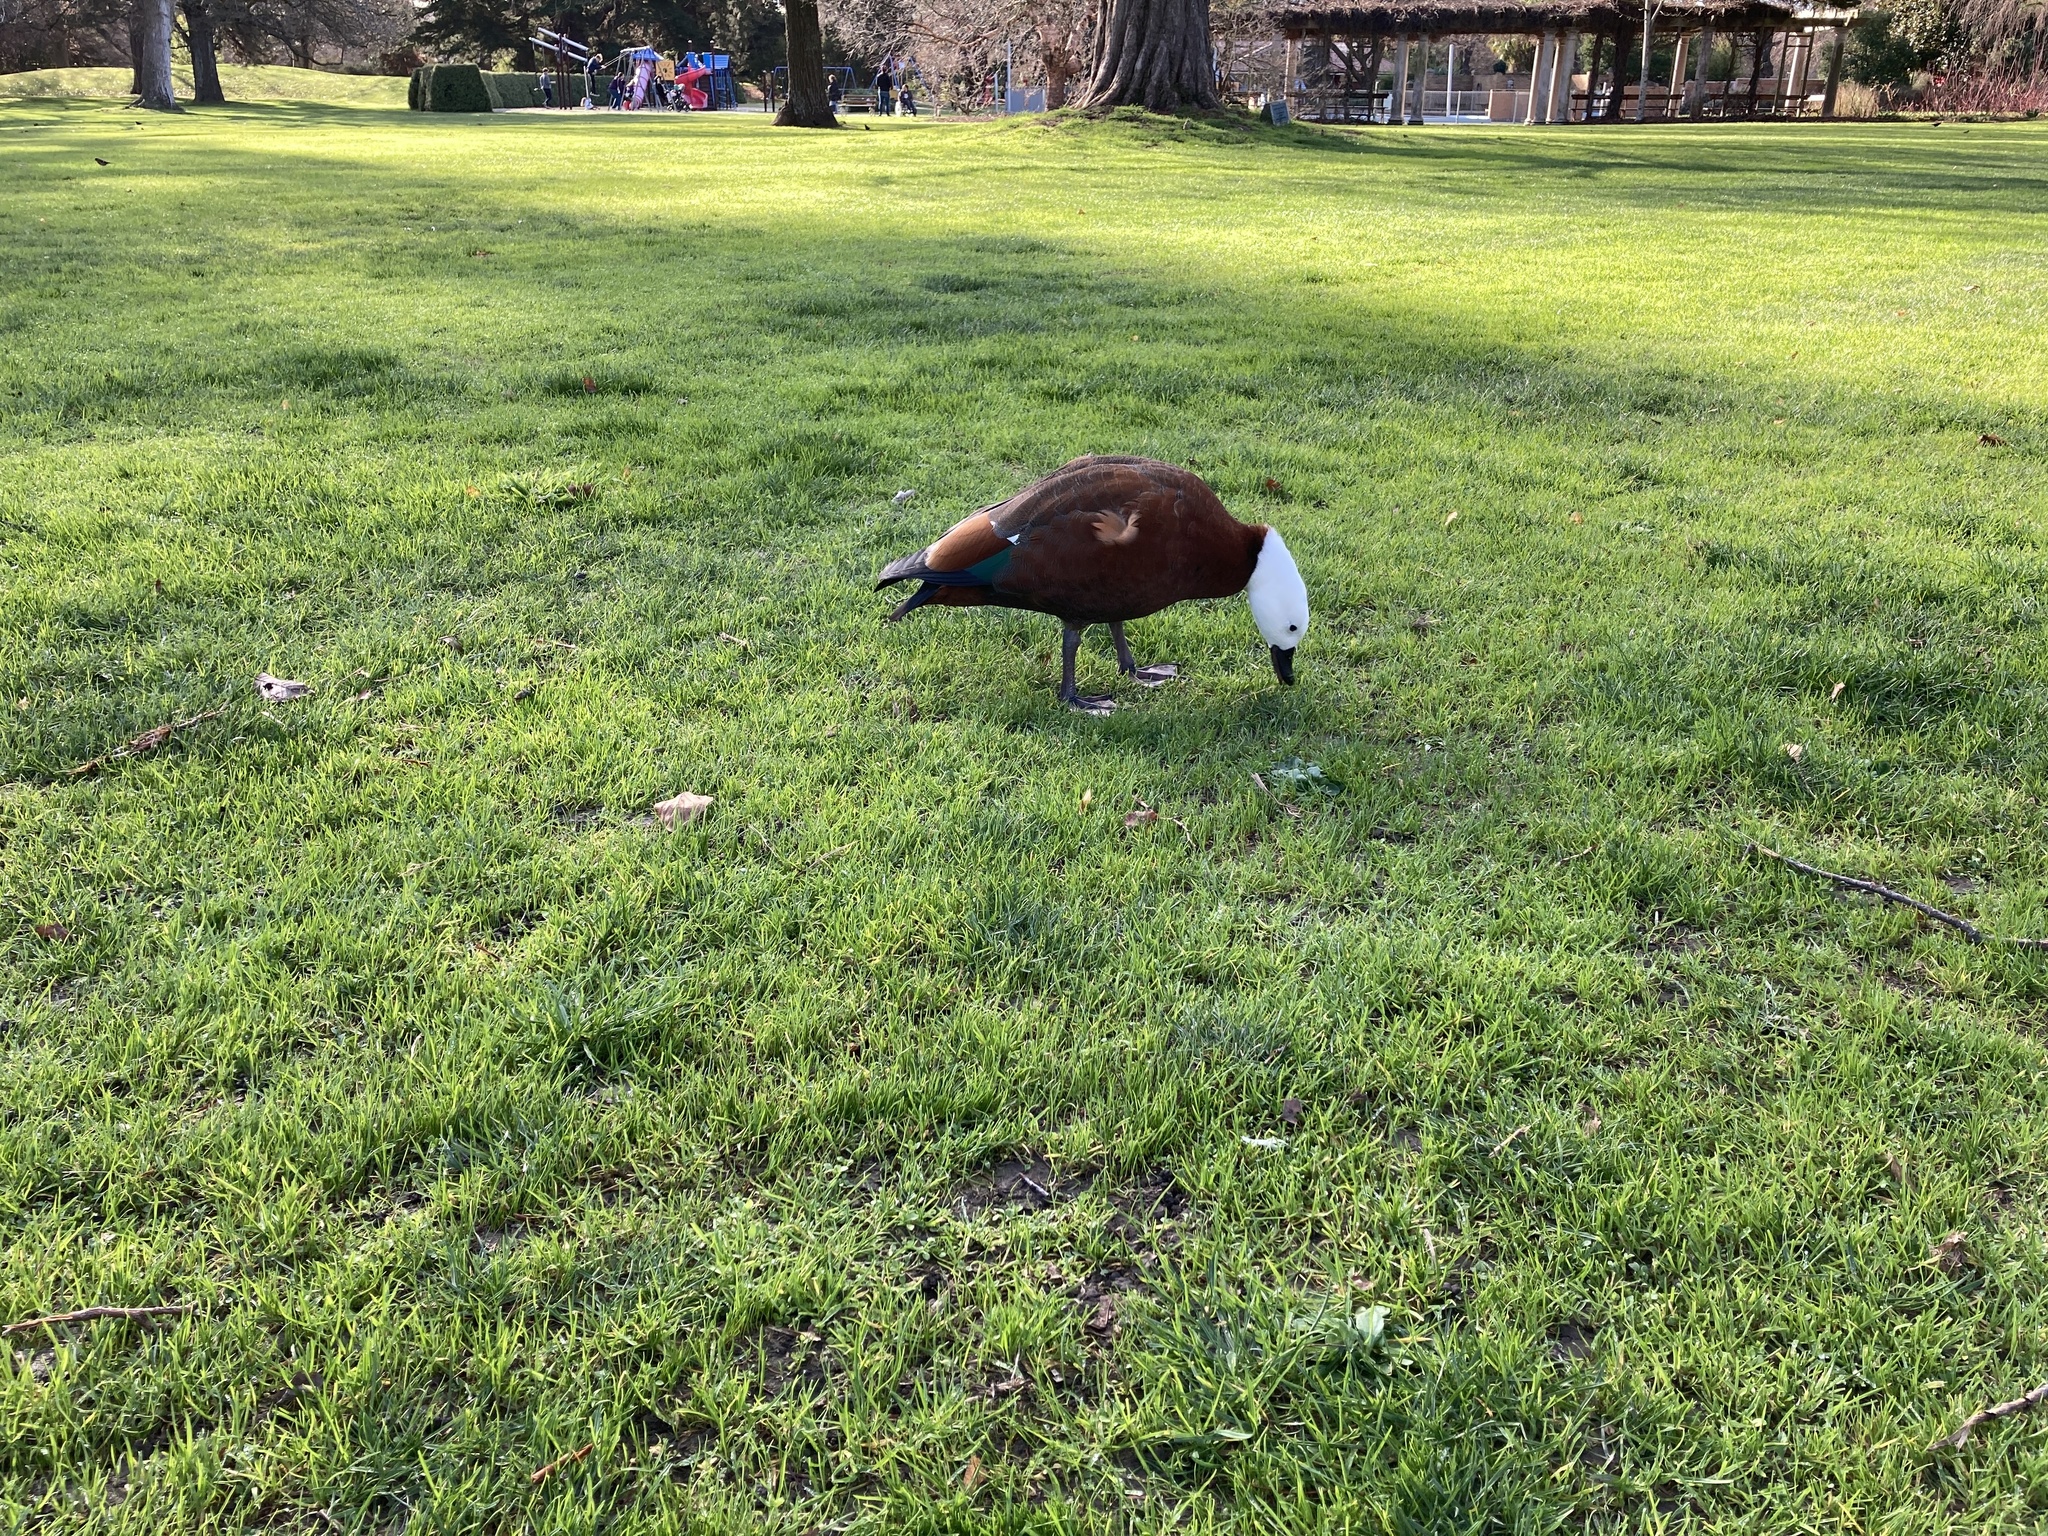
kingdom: Animalia
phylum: Chordata
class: Aves
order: Anseriformes
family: Anatidae
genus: Tadorna
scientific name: Tadorna variegata
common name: Paradise shelduck
